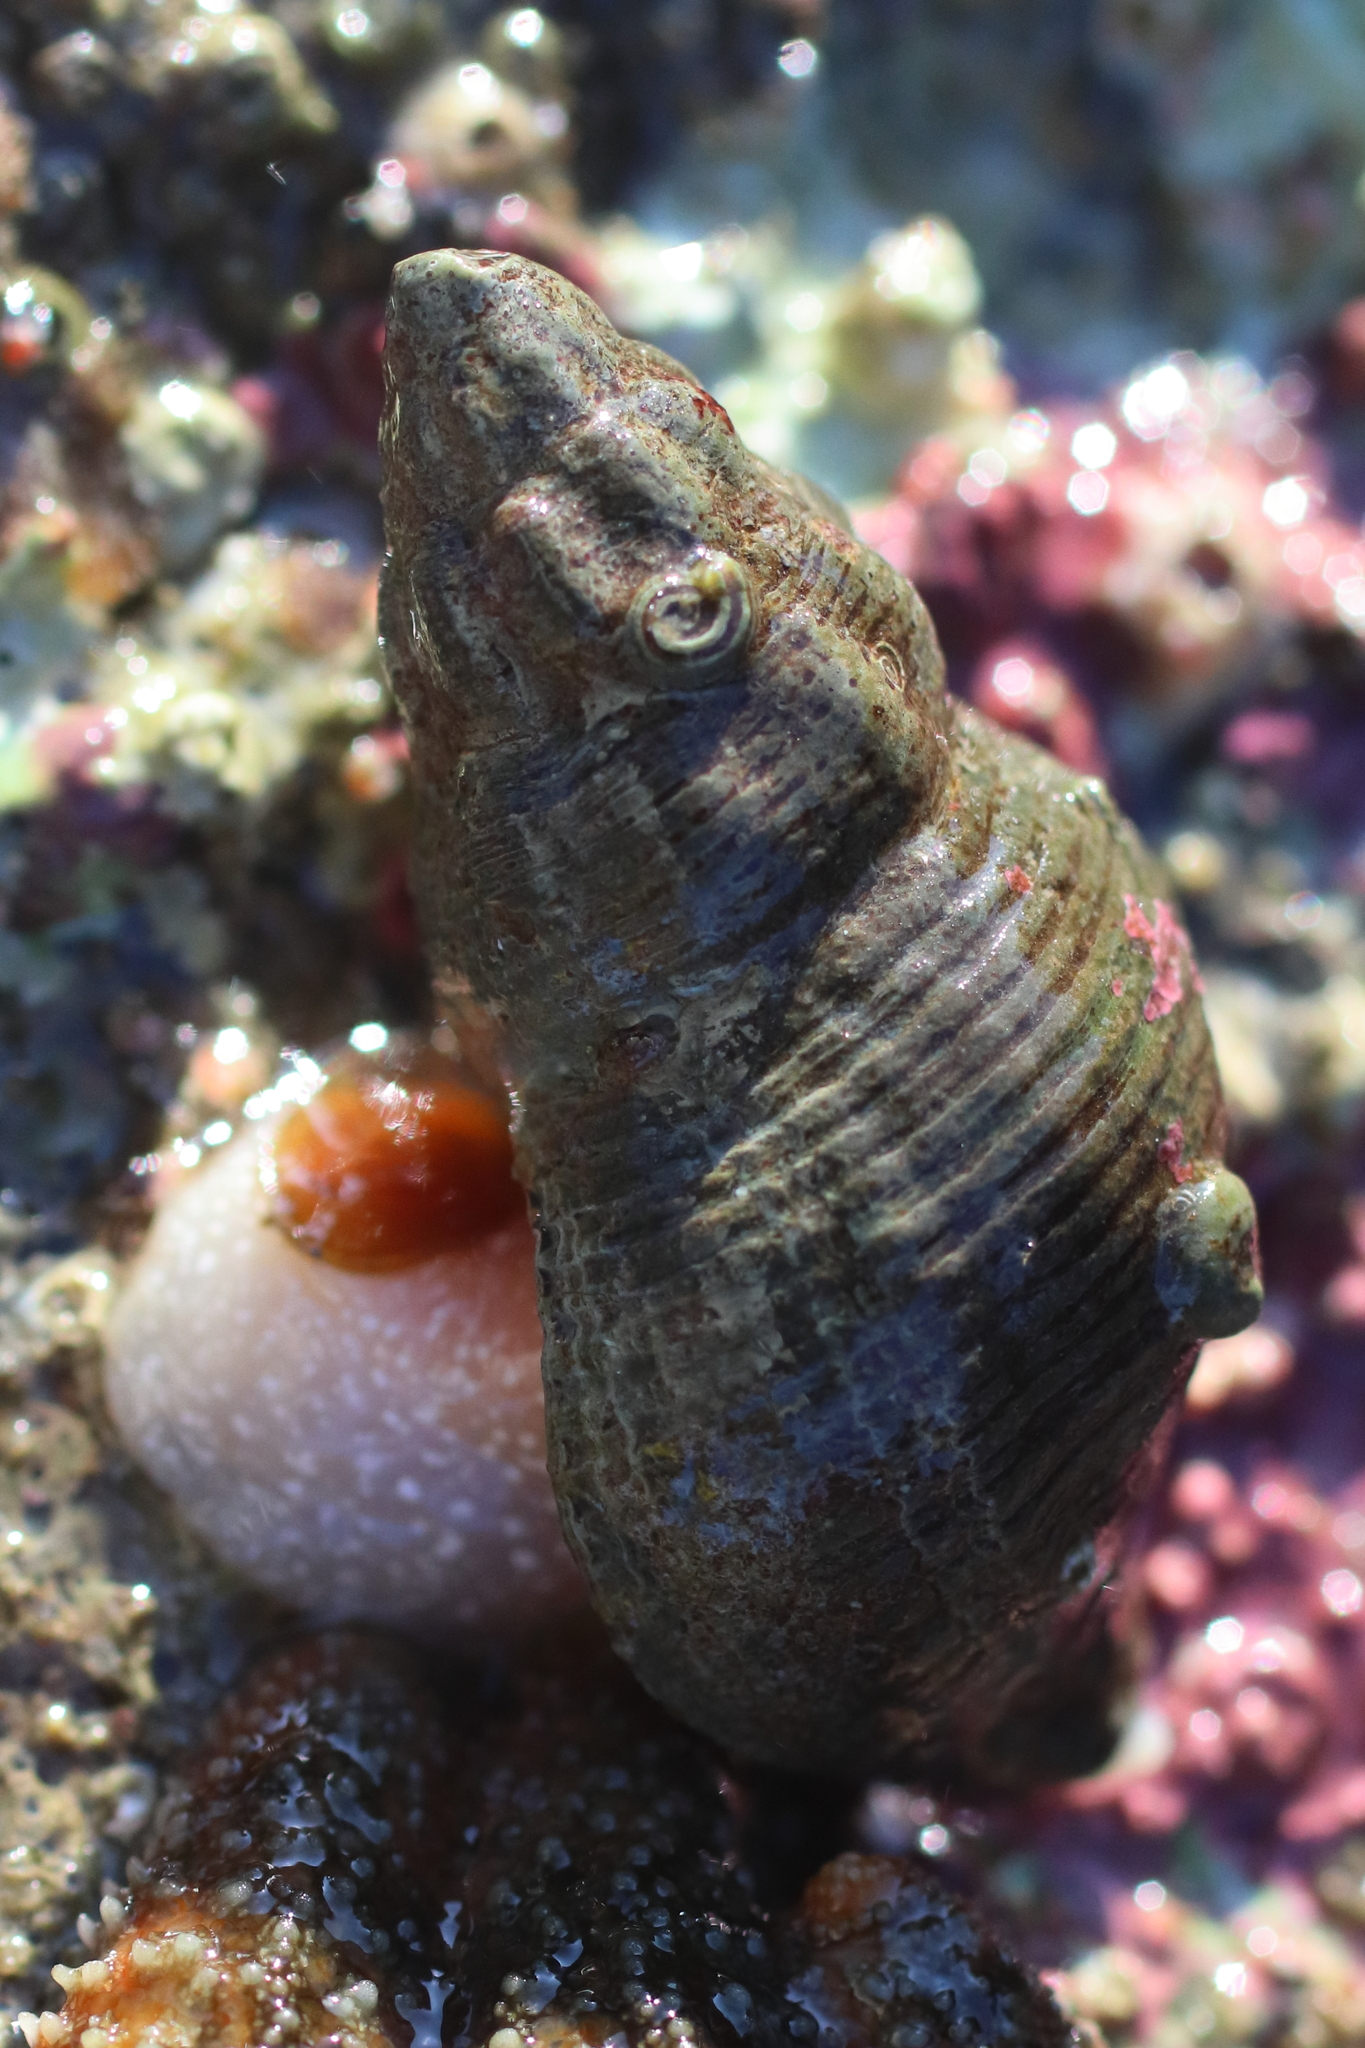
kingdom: Animalia
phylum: Mollusca
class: Gastropoda
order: Neogastropoda
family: Tudiclidae
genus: Lirabuccinum
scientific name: Lirabuccinum dirum
